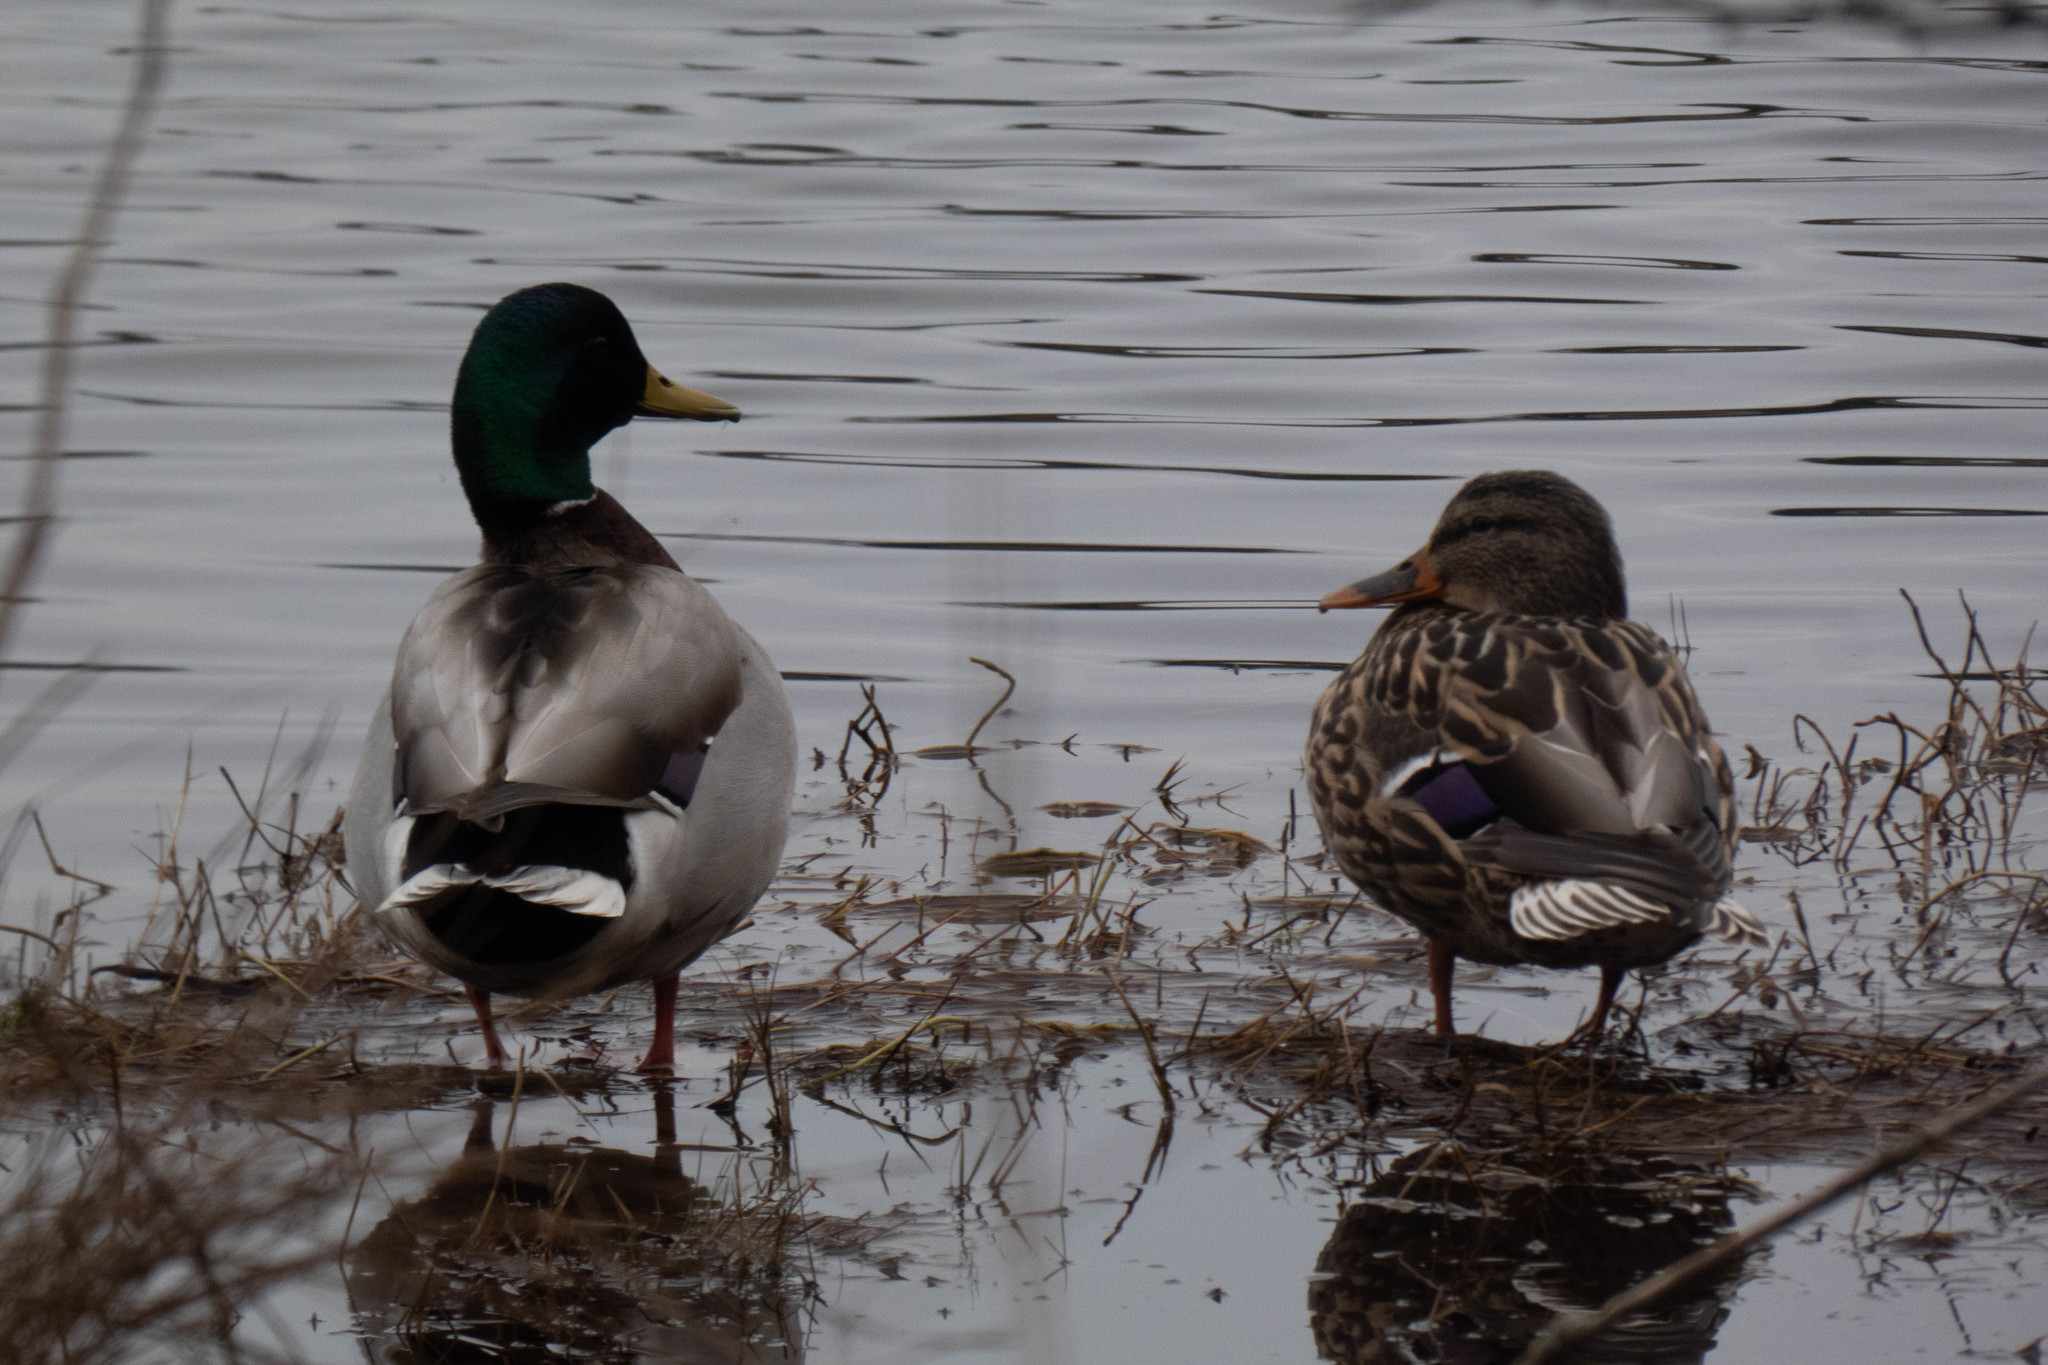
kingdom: Animalia
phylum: Chordata
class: Aves
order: Anseriformes
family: Anatidae
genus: Anas
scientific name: Anas platyrhynchos
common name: Mallard
